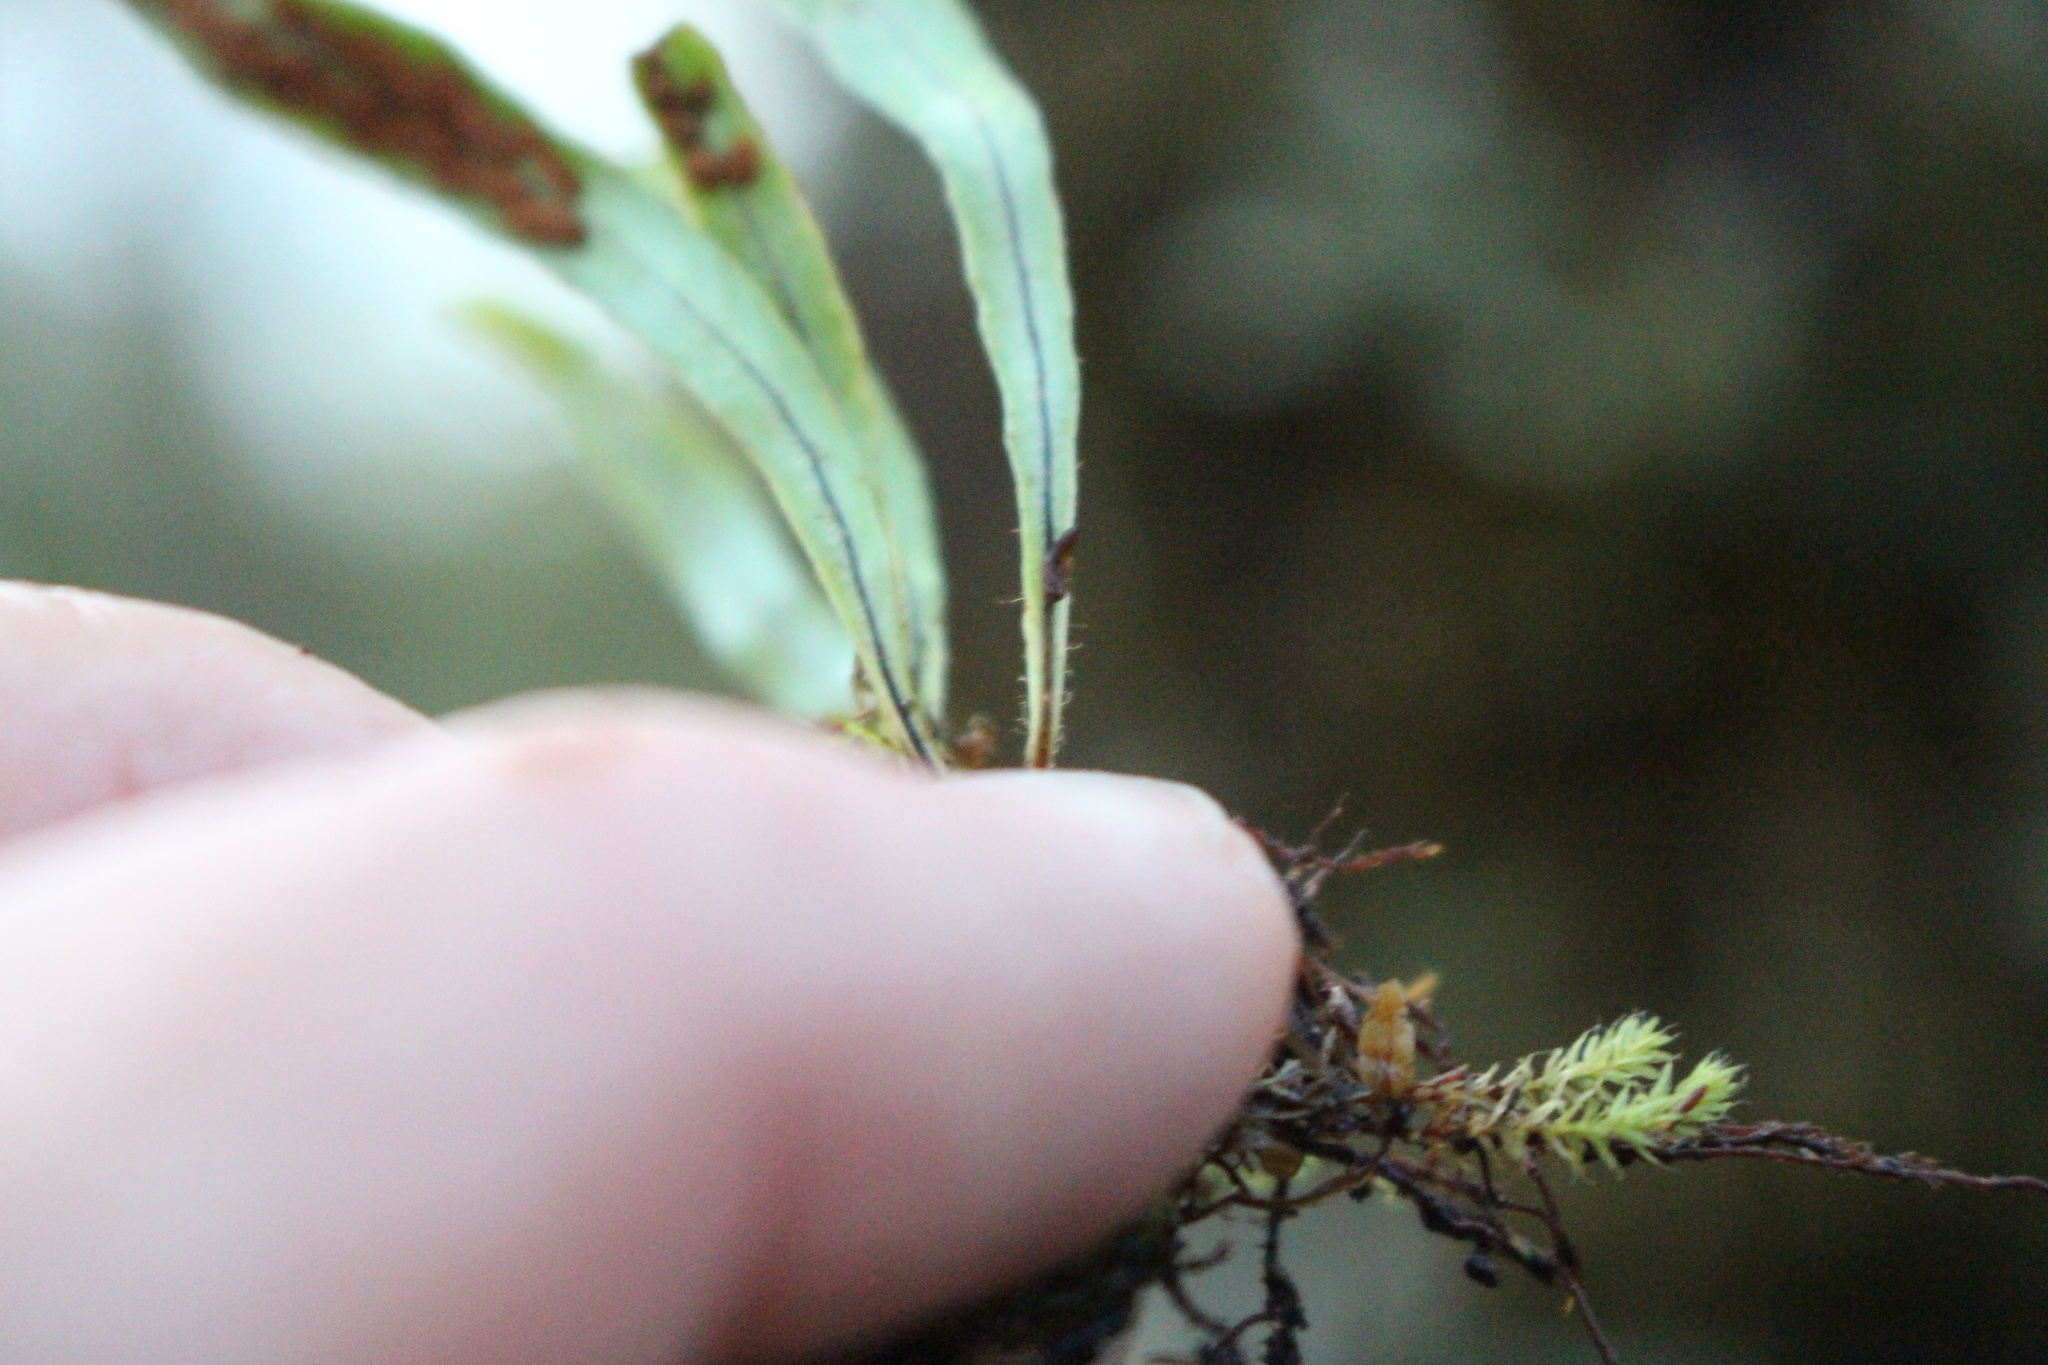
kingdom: Plantae
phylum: Tracheophyta
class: Polypodiopsida
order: Polypodiales
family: Polypodiaceae
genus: Notogrammitis
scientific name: Notogrammitis billardierei
